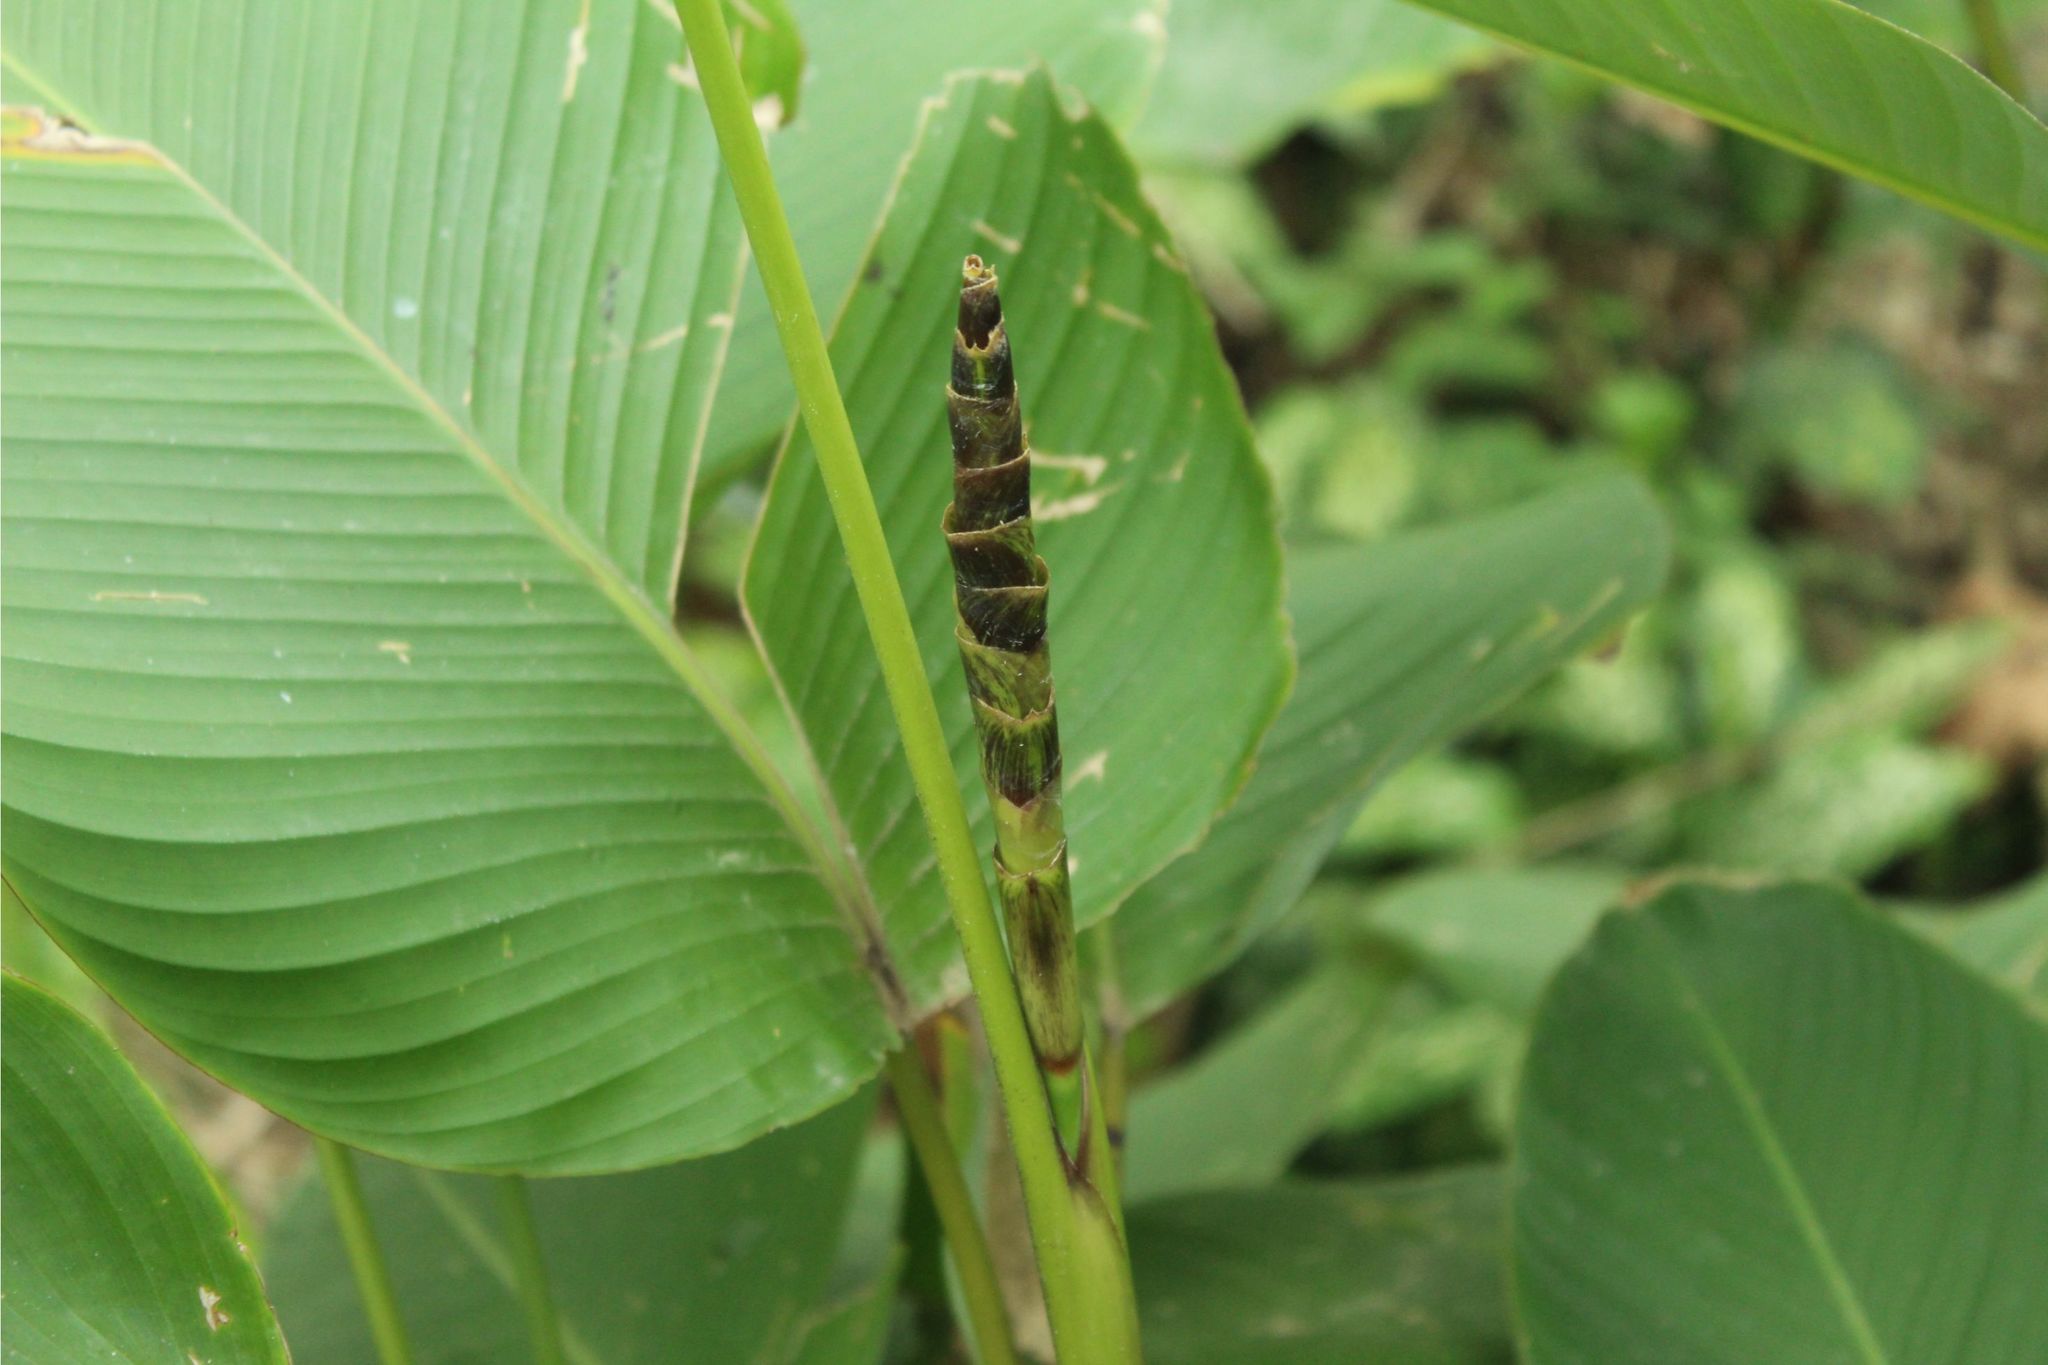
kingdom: Plantae
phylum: Tracheophyta
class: Liliopsida
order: Zingiberales
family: Marantaceae
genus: Calathea
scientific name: Calathea lutea
